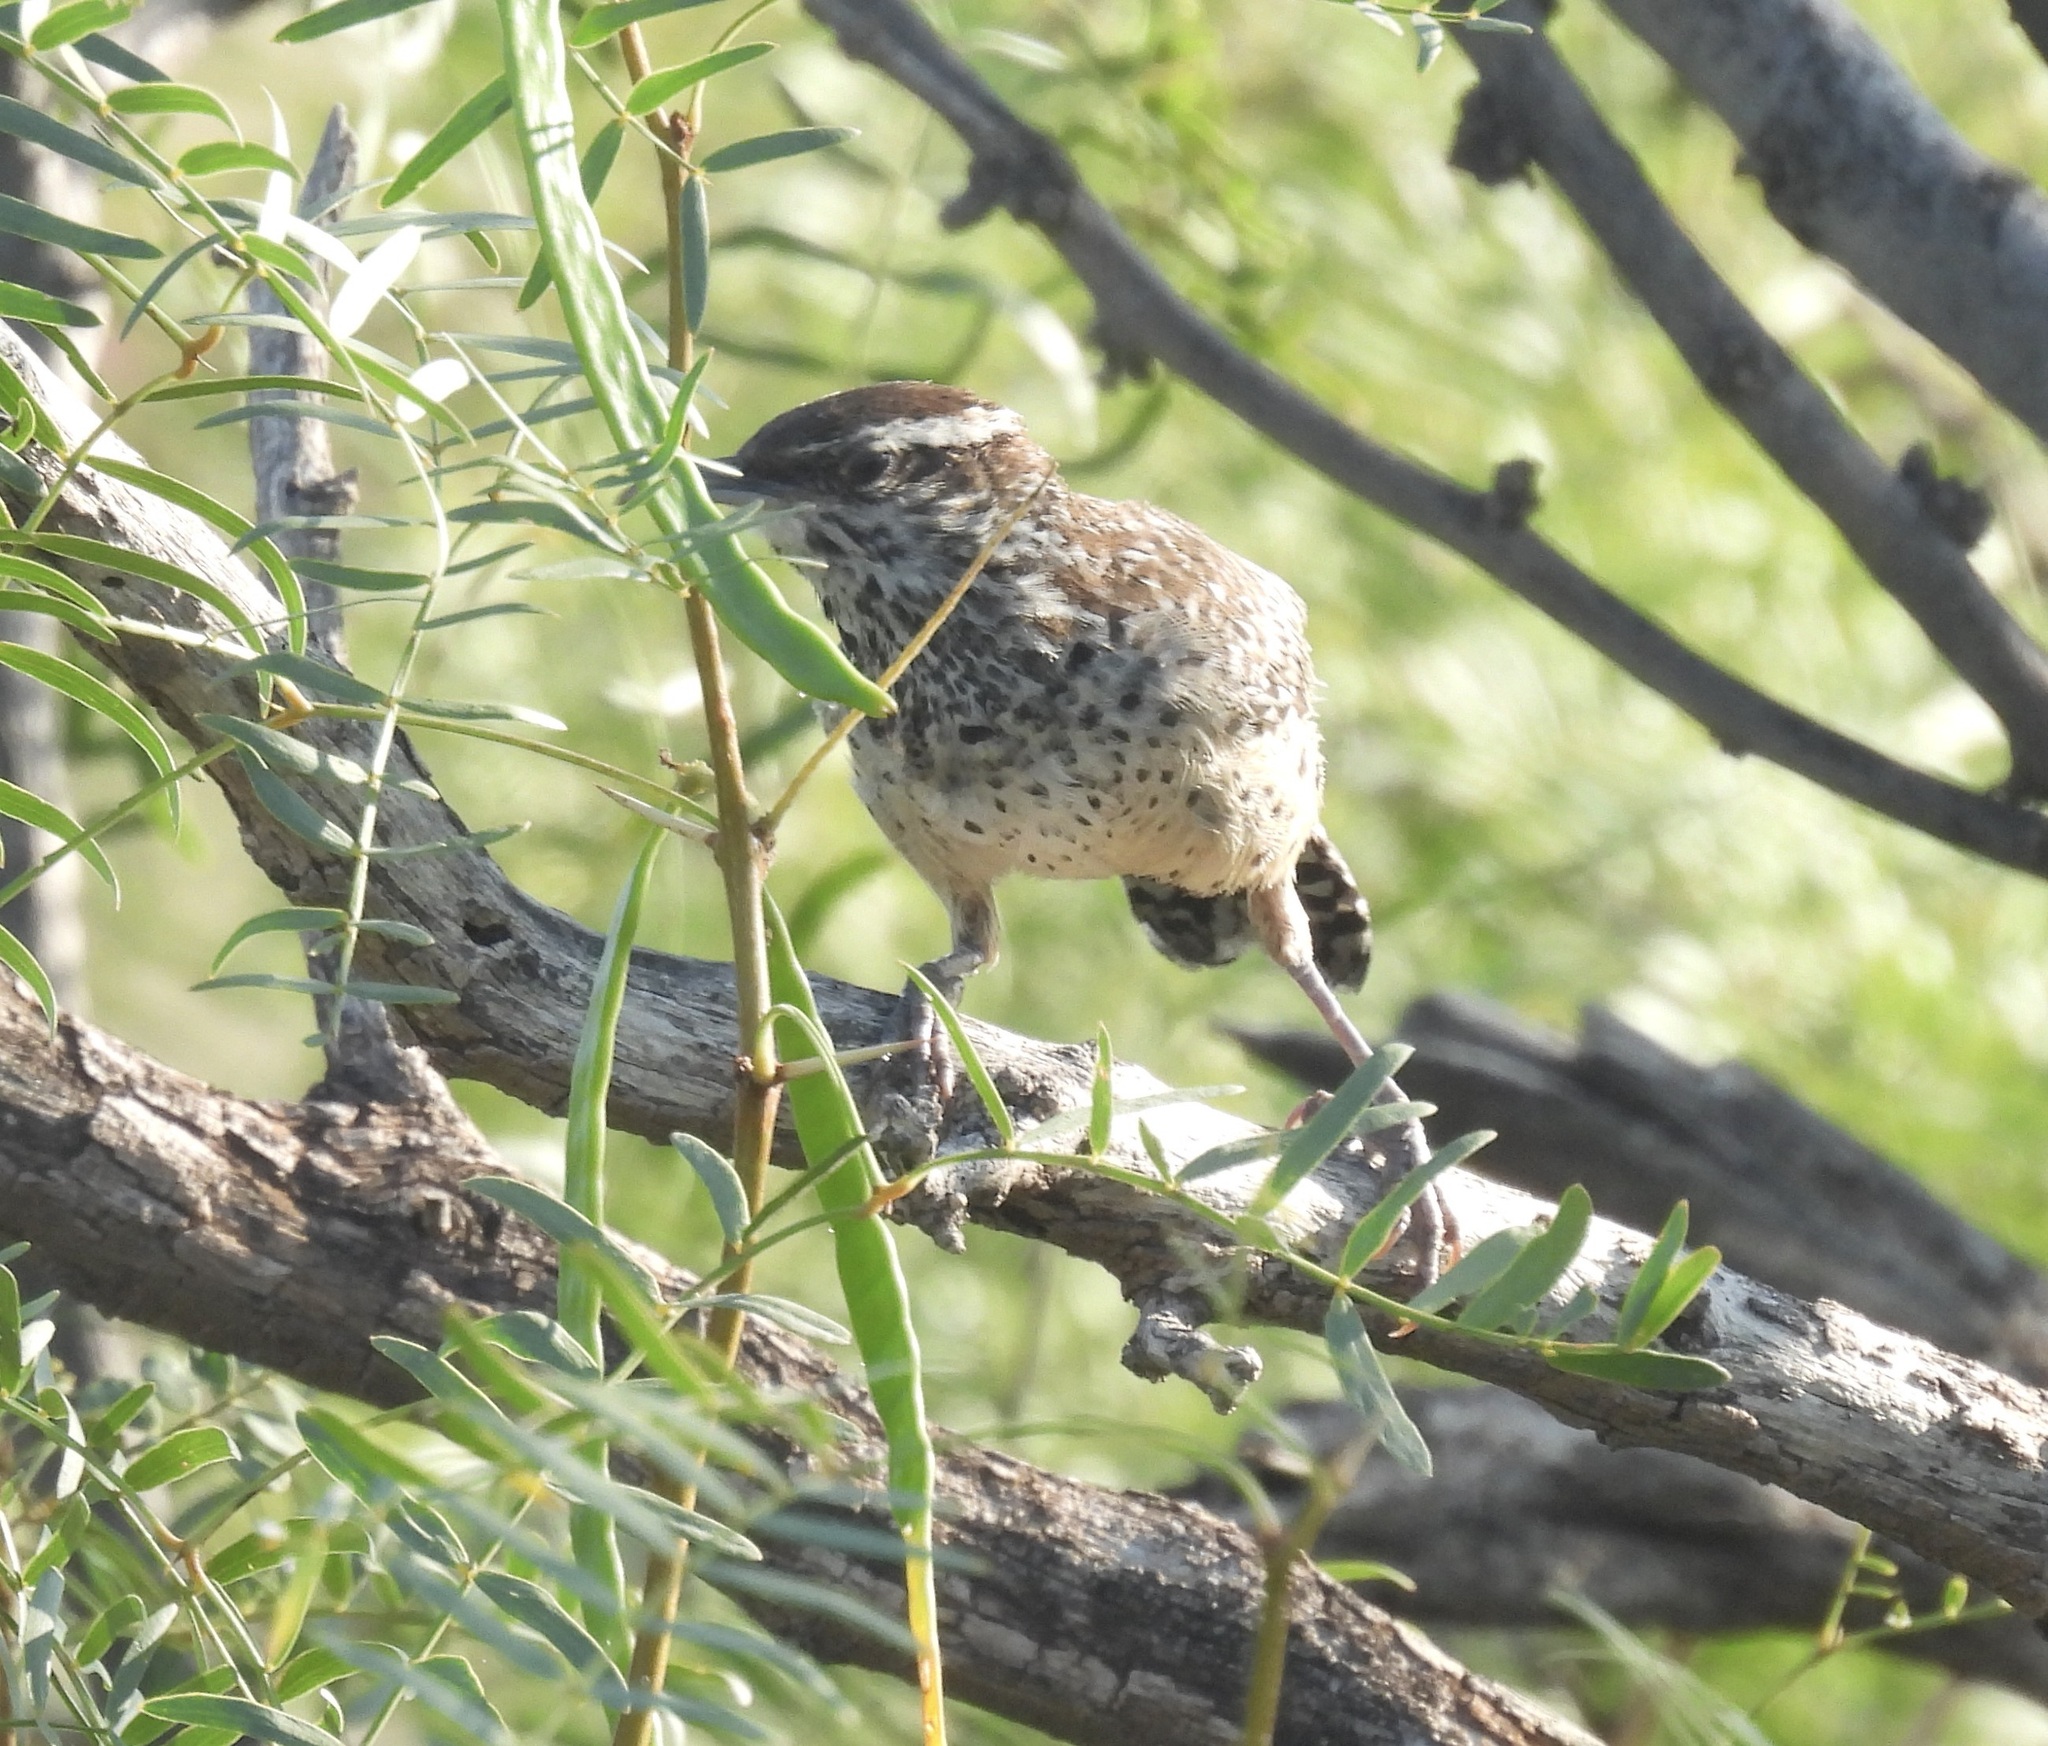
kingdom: Animalia
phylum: Chordata
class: Aves
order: Passeriformes
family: Troglodytidae
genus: Campylorhynchus
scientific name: Campylorhynchus brunneicapillus
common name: Cactus wren
